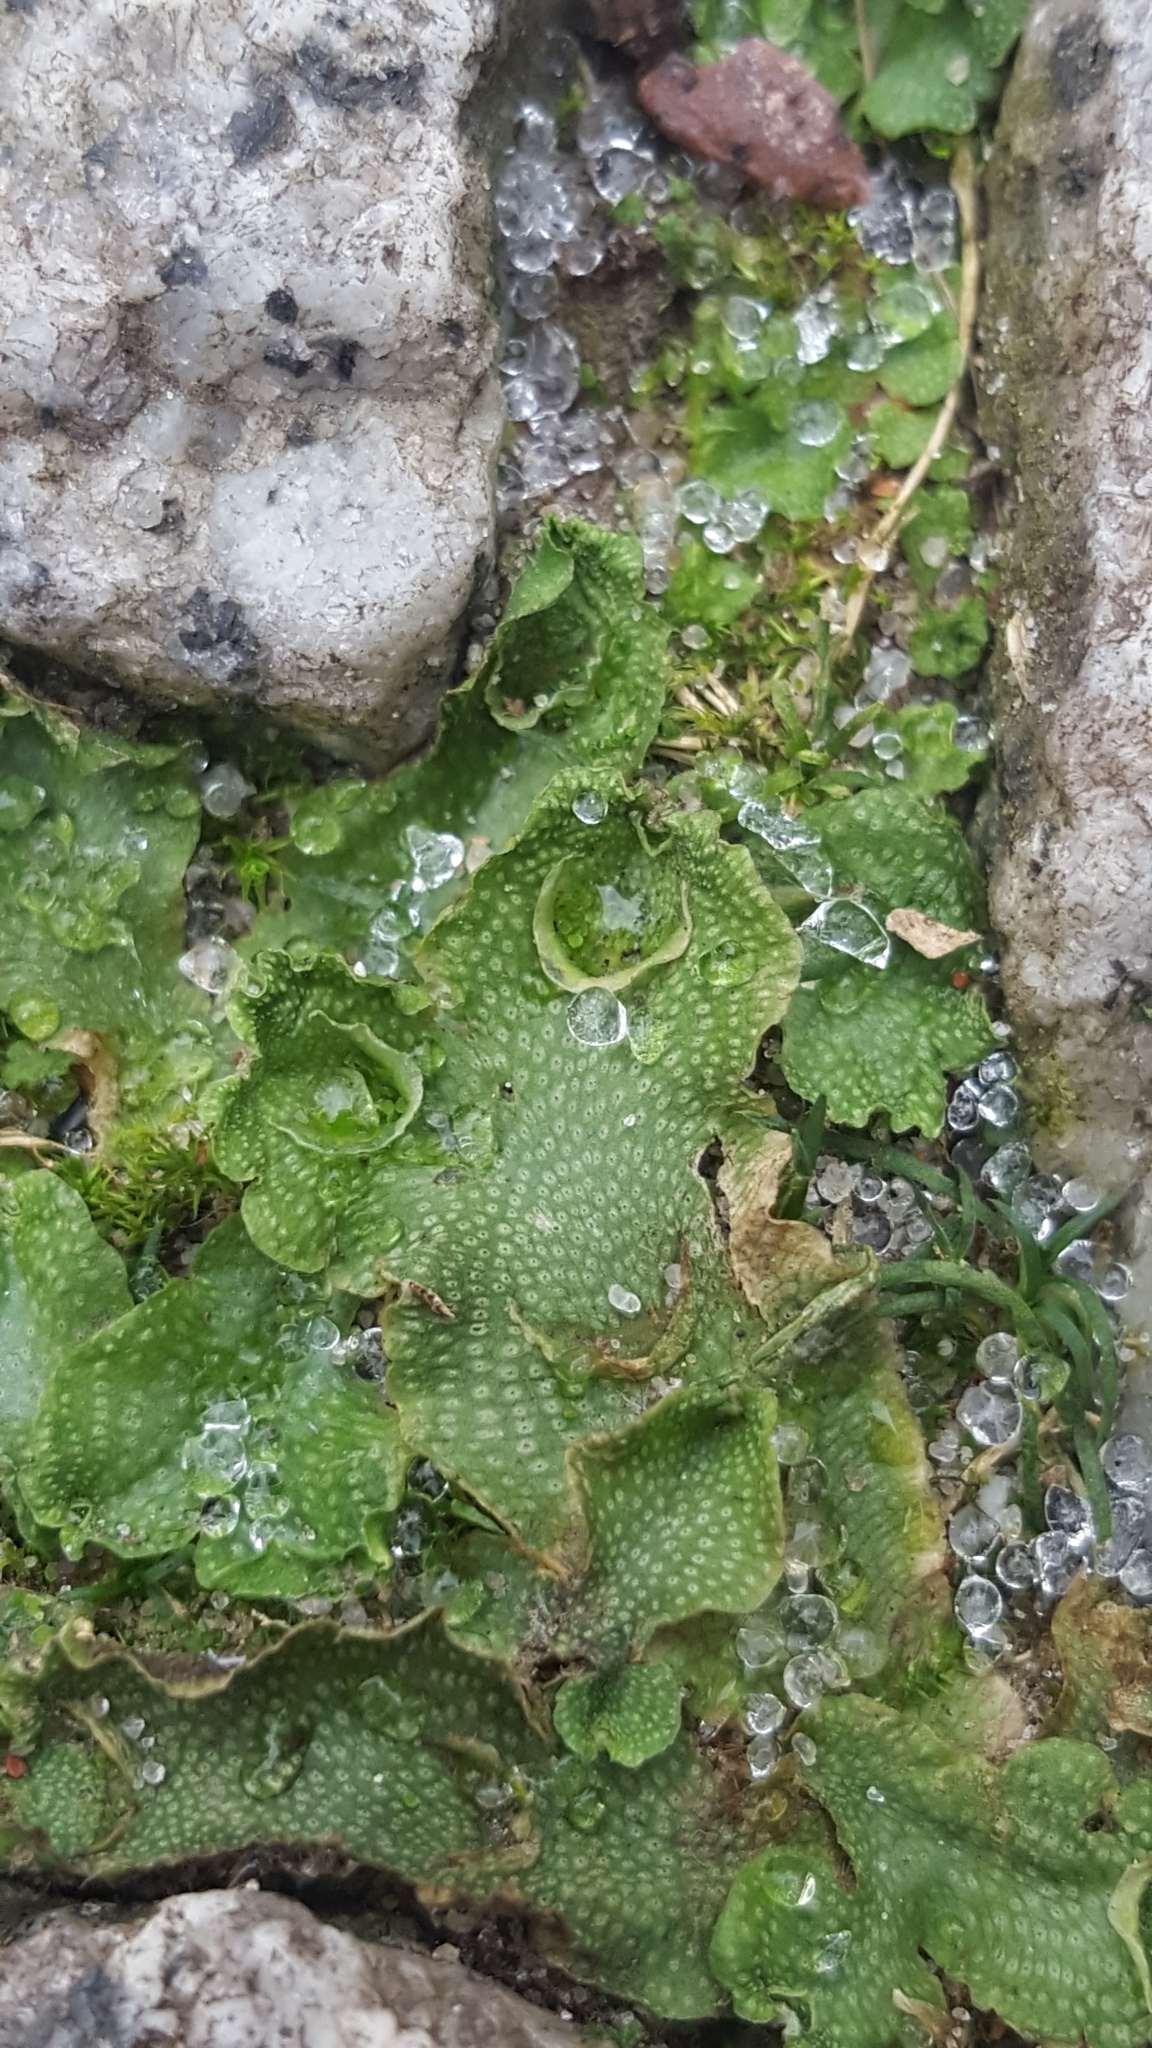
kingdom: Plantae
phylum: Marchantiophyta
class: Marchantiopsida
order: Lunulariales
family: Lunulariaceae
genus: Lunularia
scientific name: Lunularia cruciata
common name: Crescent-cup liverwort
